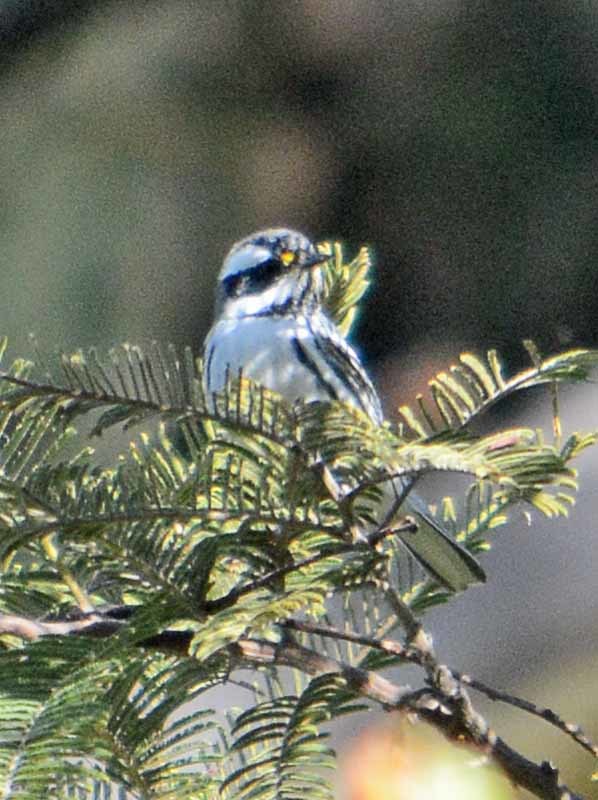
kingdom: Animalia
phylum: Chordata
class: Aves
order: Passeriformes
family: Parulidae
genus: Setophaga
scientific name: Setophaga nigrescens
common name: Black-throated gray warbler
